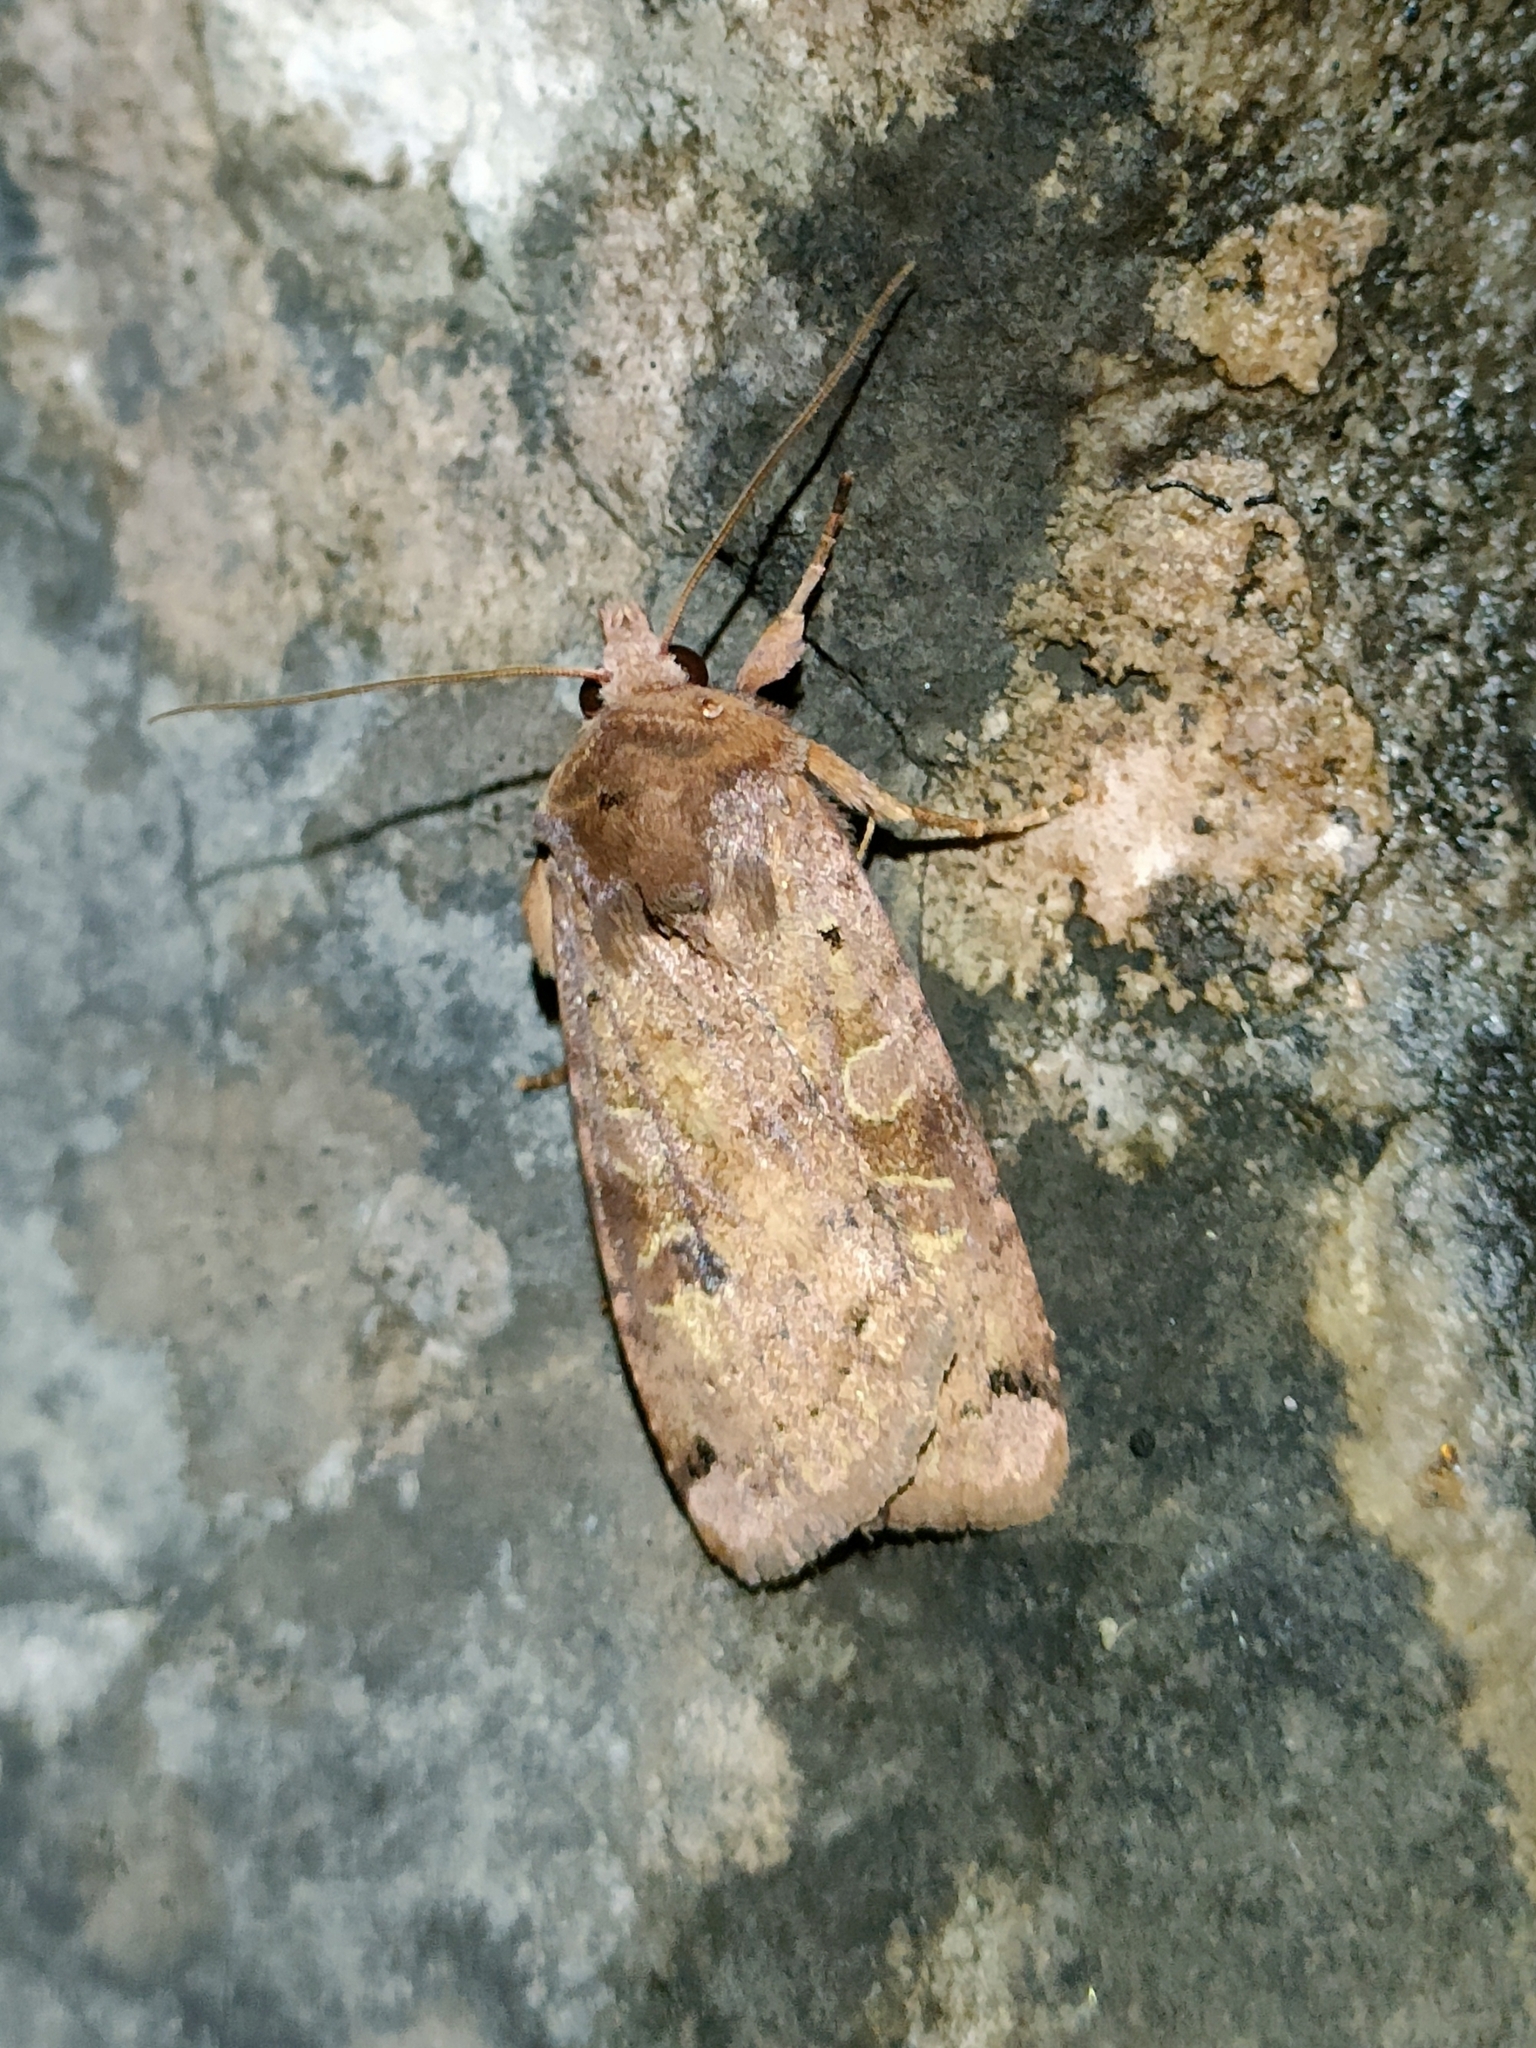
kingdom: Animalia
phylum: Arthropoda
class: Insecta
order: Lepidoptera
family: Noctuidae
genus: Xestia
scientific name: Xestia baja
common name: Dotted clay
